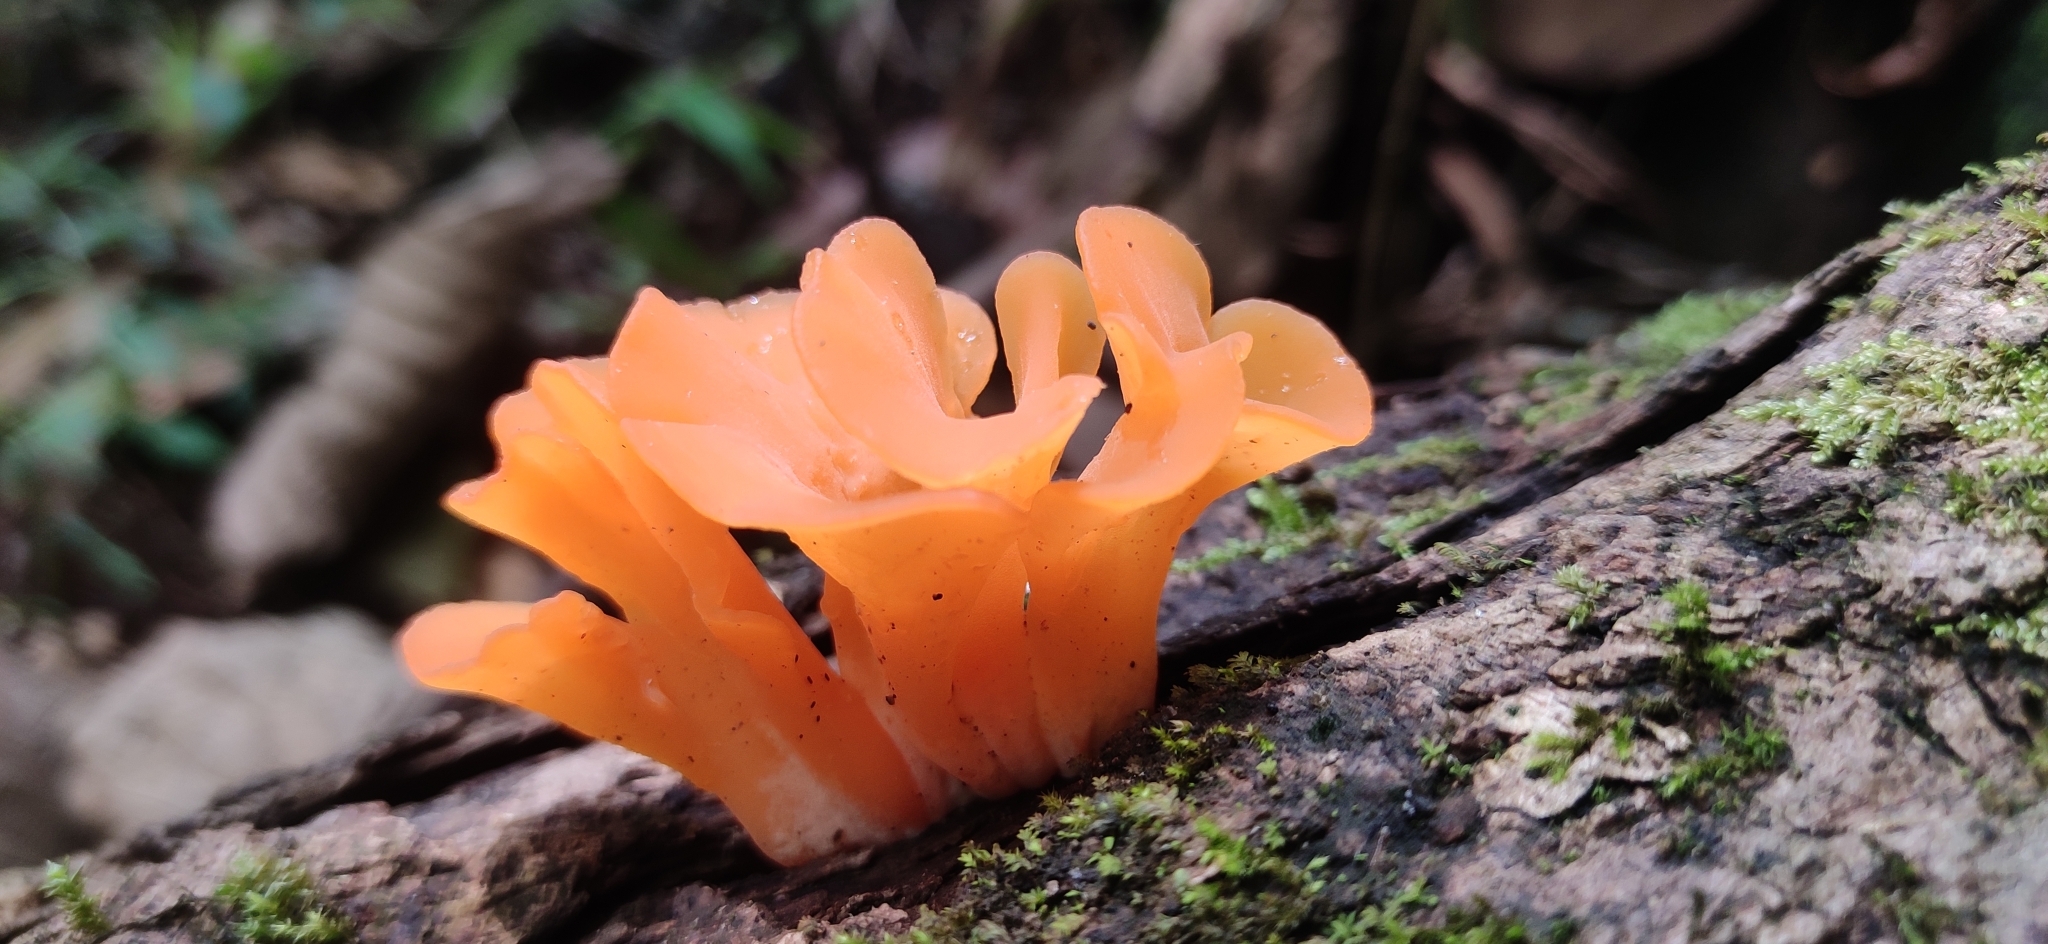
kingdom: Fungi
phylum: Basidiomycota
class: Dacrymycetes
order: Dacrymycetales
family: Dacrymycetaceae
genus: Dacrymyces
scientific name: Dacrymyces spathularius
